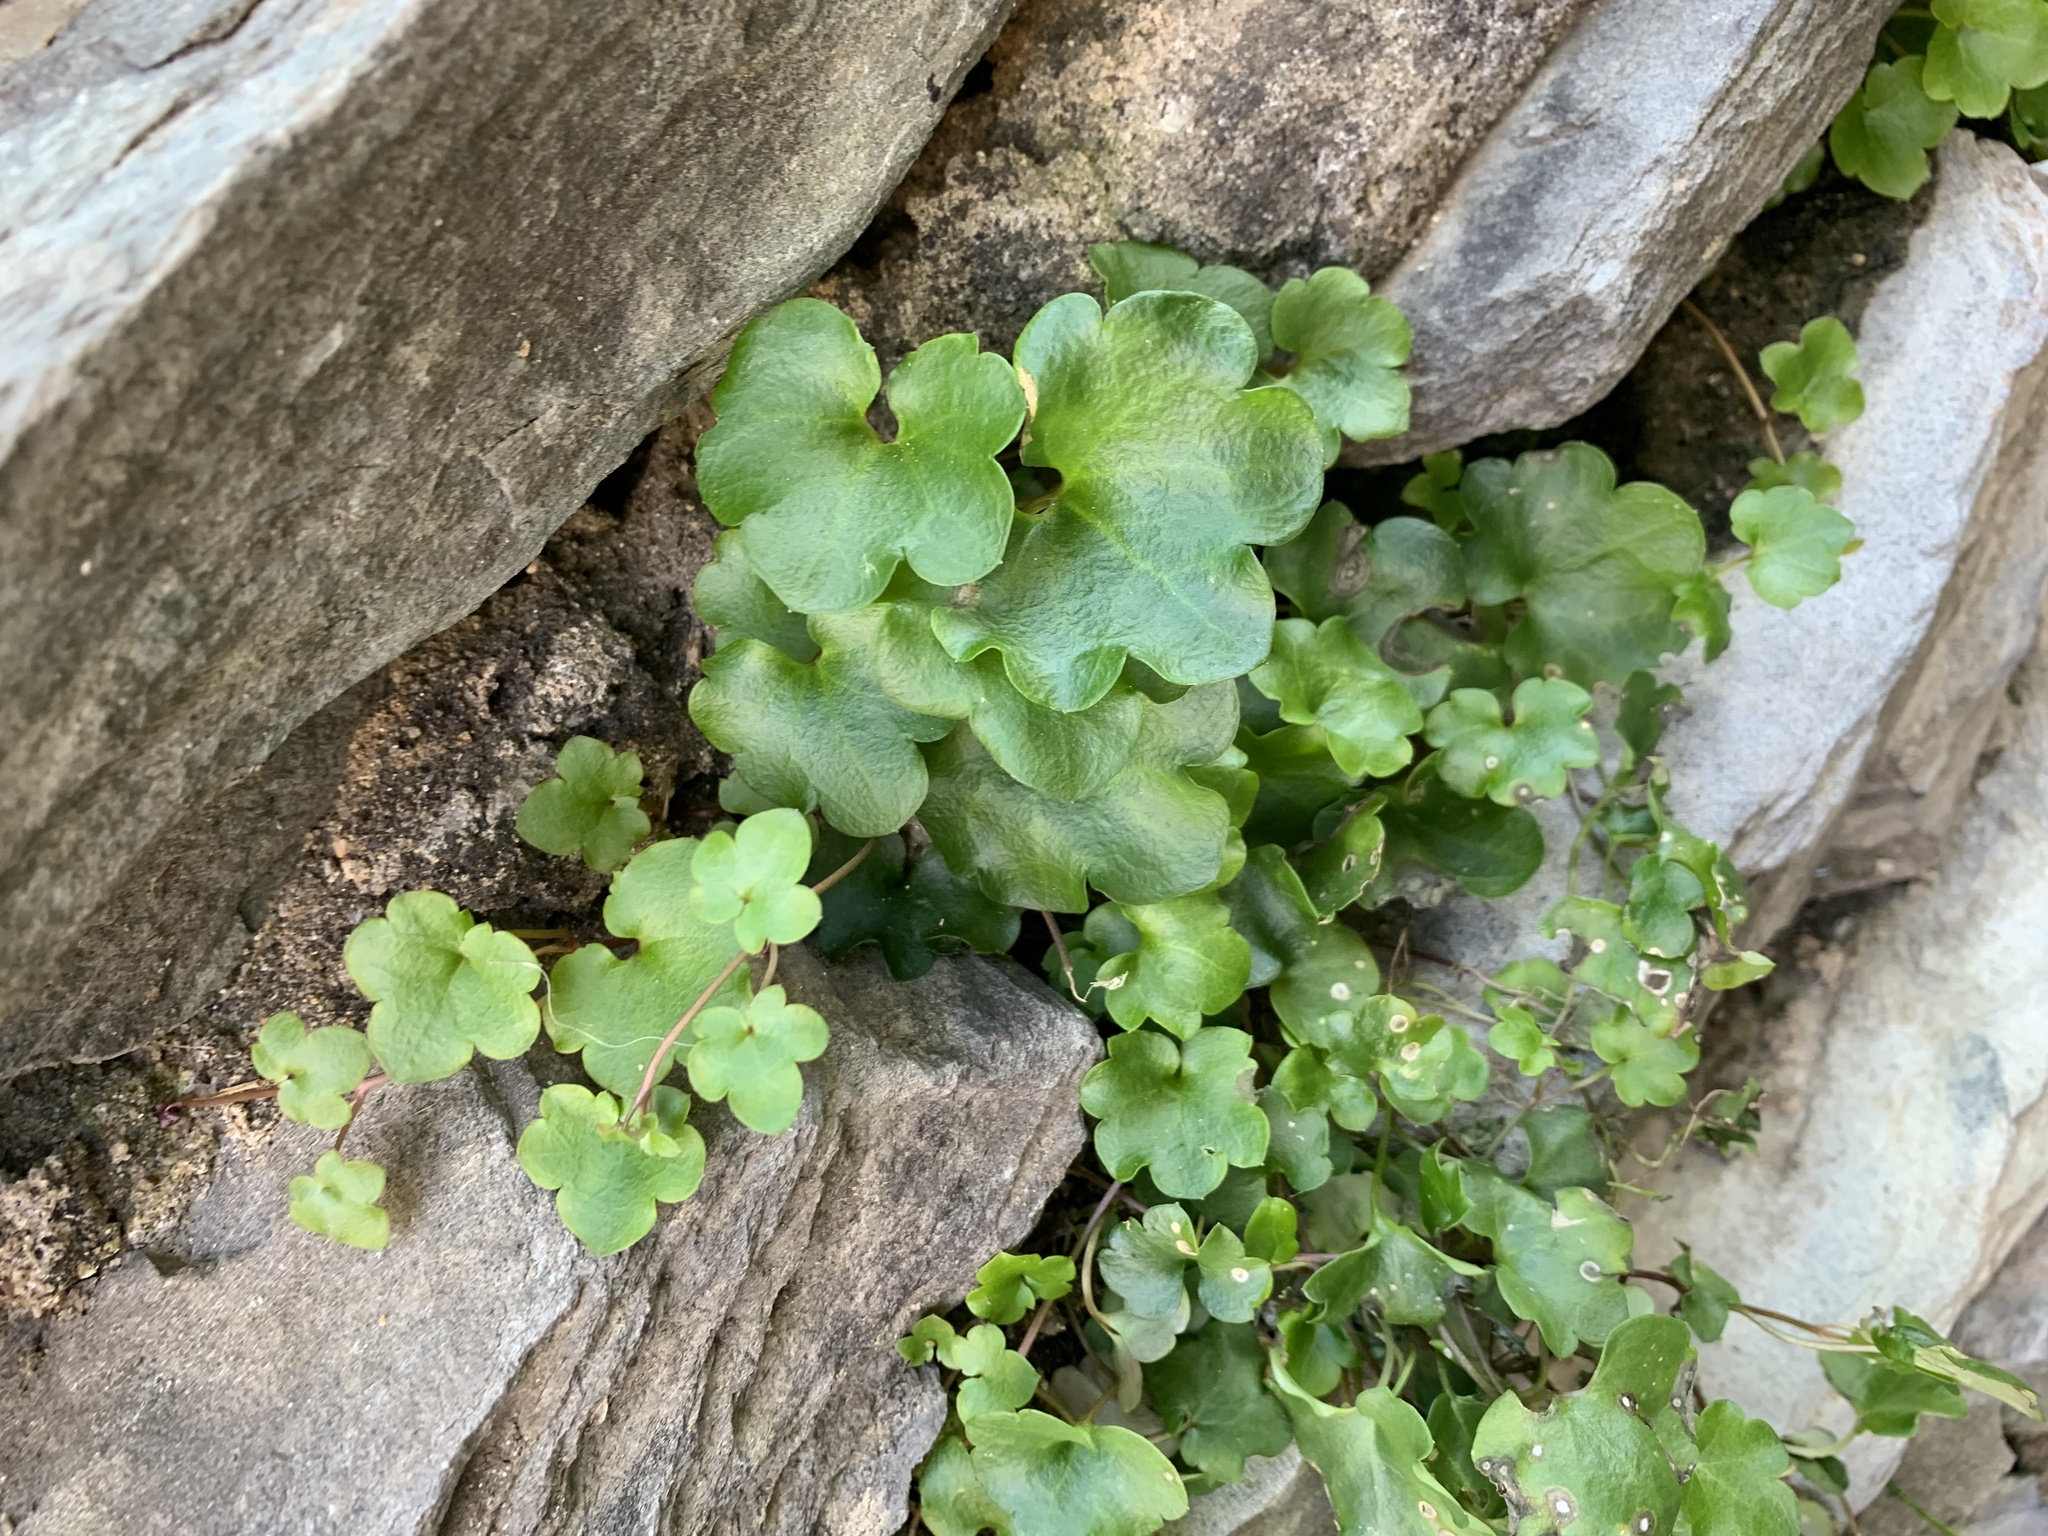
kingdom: Plantae
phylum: Tracheophyta
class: Magnoliopsida
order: Lamiales
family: Plantaginaceae
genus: Cymbalaria
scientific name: Cymbalaria muralis
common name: Ivy-leaved toadflax
